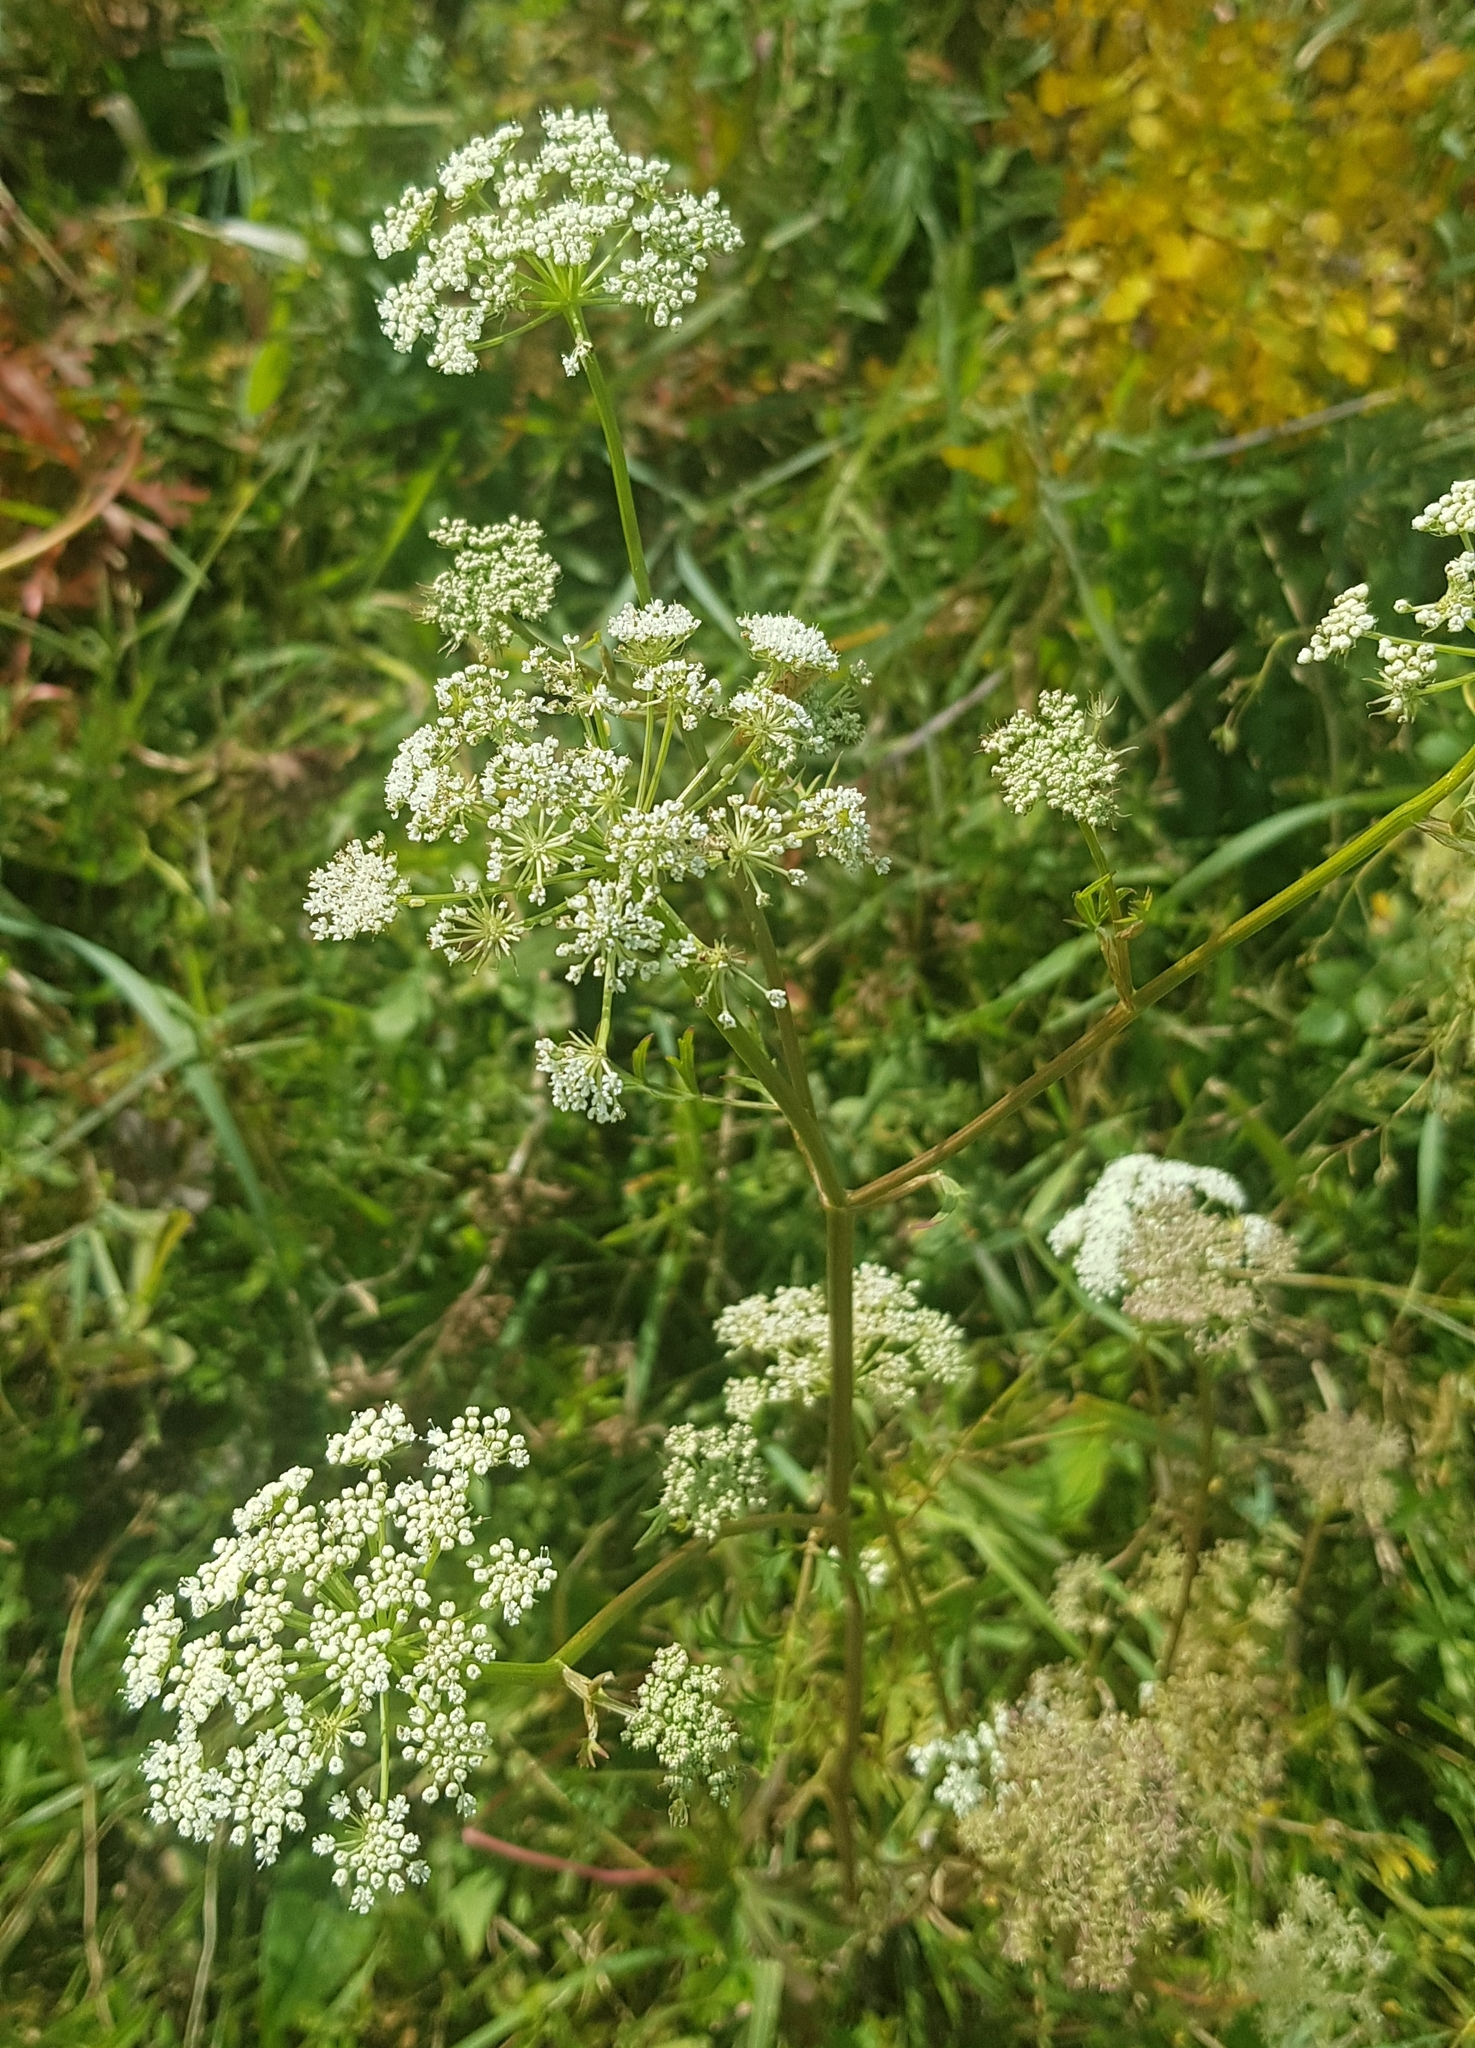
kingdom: Plantae
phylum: Tracheophyta
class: Magnoliopsida
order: Apiales
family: Apiaceae
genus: Cenolophium
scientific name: Cenolophium fischeri
